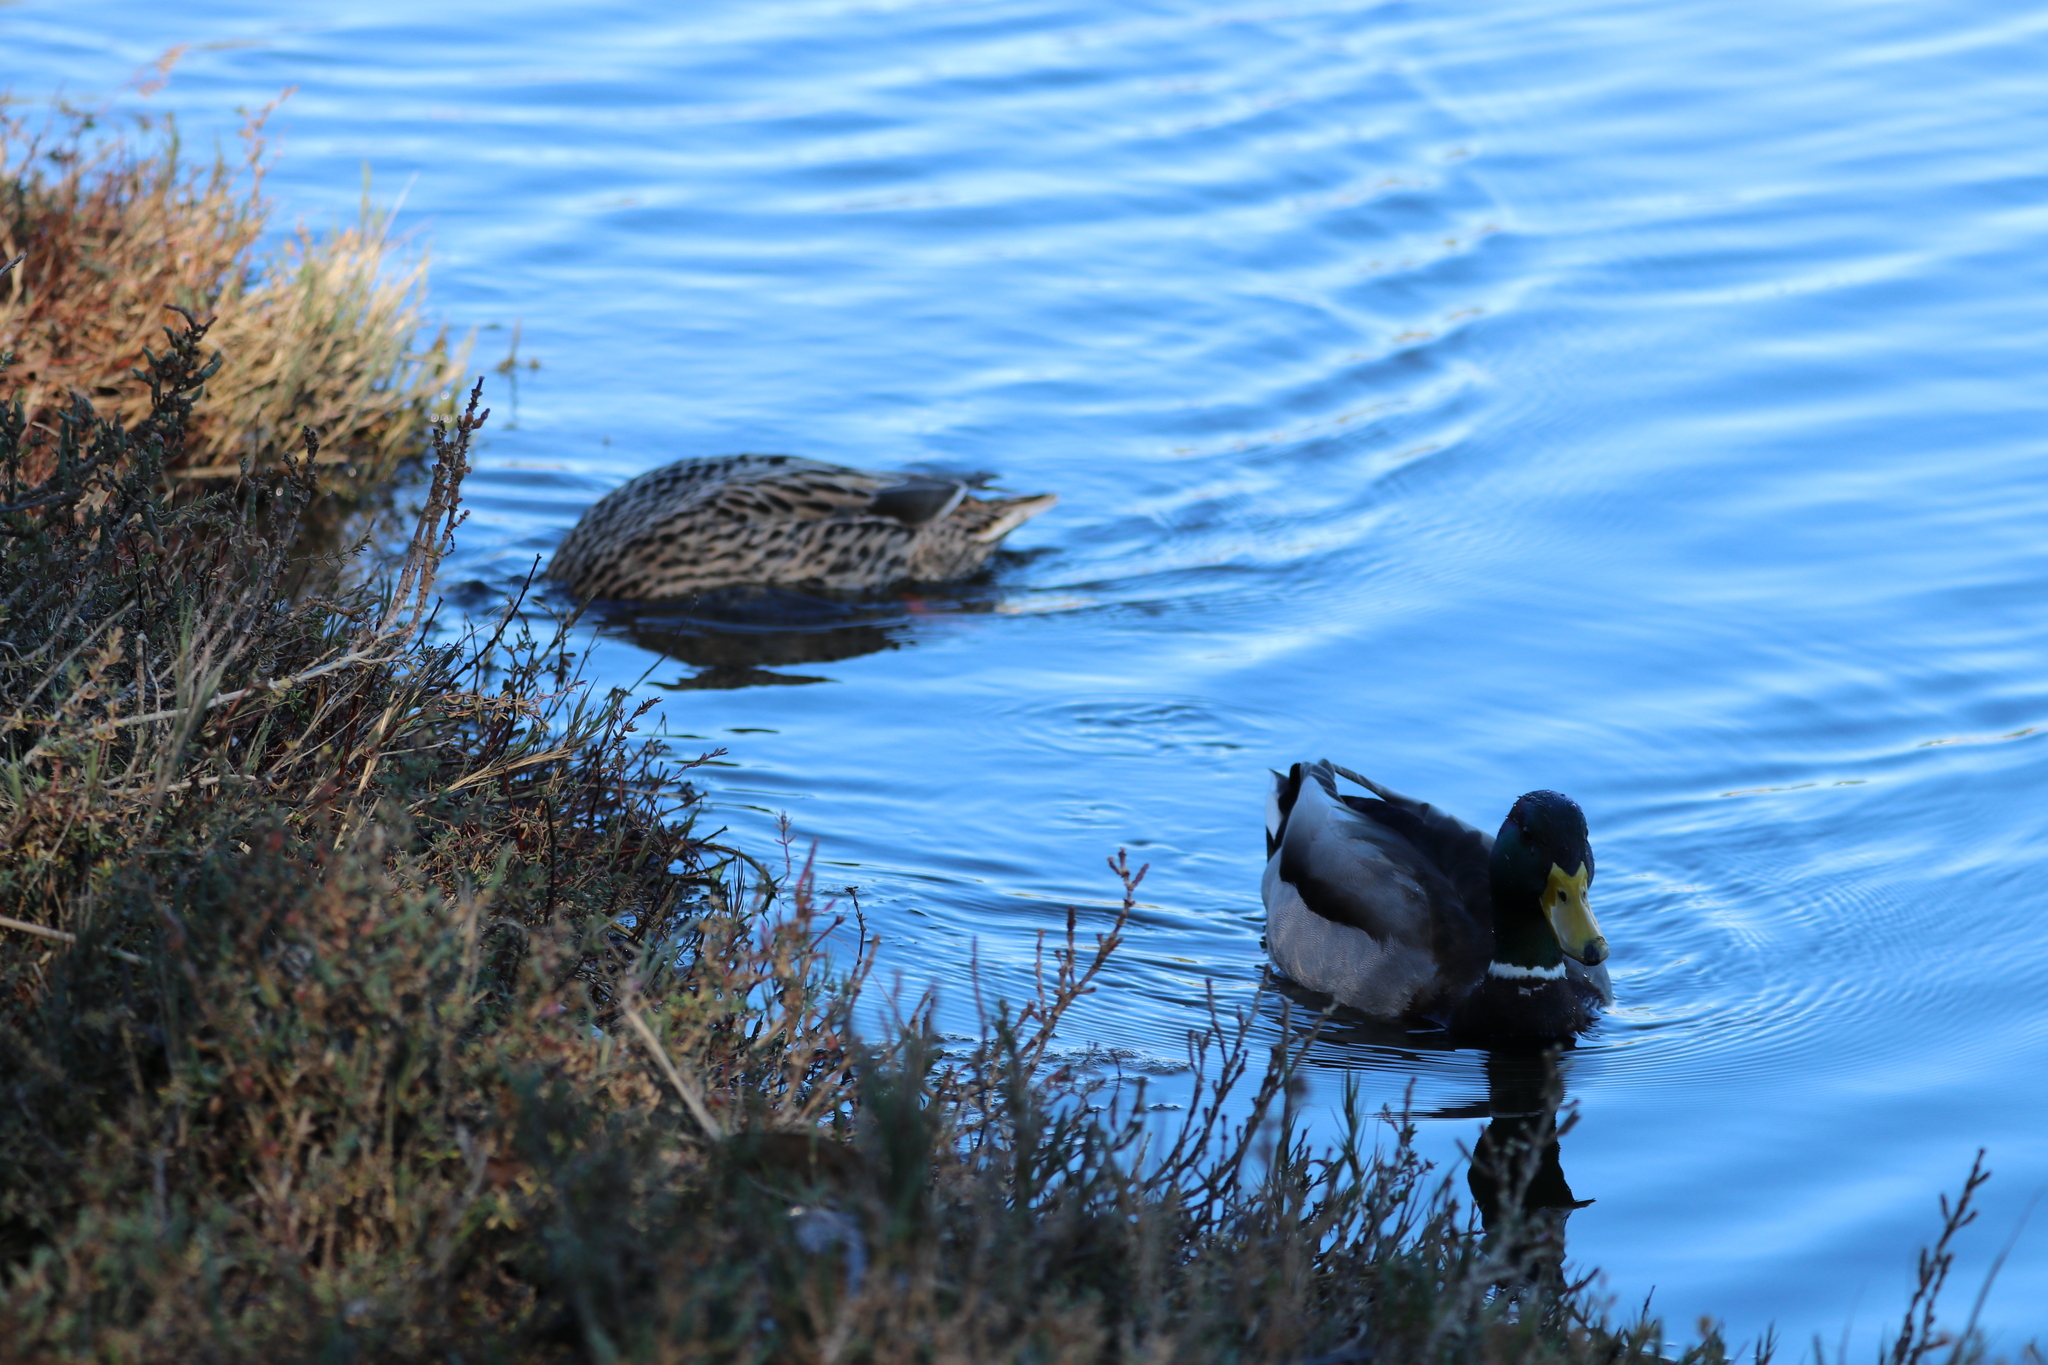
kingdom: Animalia
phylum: Chordata
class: Aves
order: Anseriformes
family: Anatidae
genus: Anas
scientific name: Anas platyrhynchos
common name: Mallard
